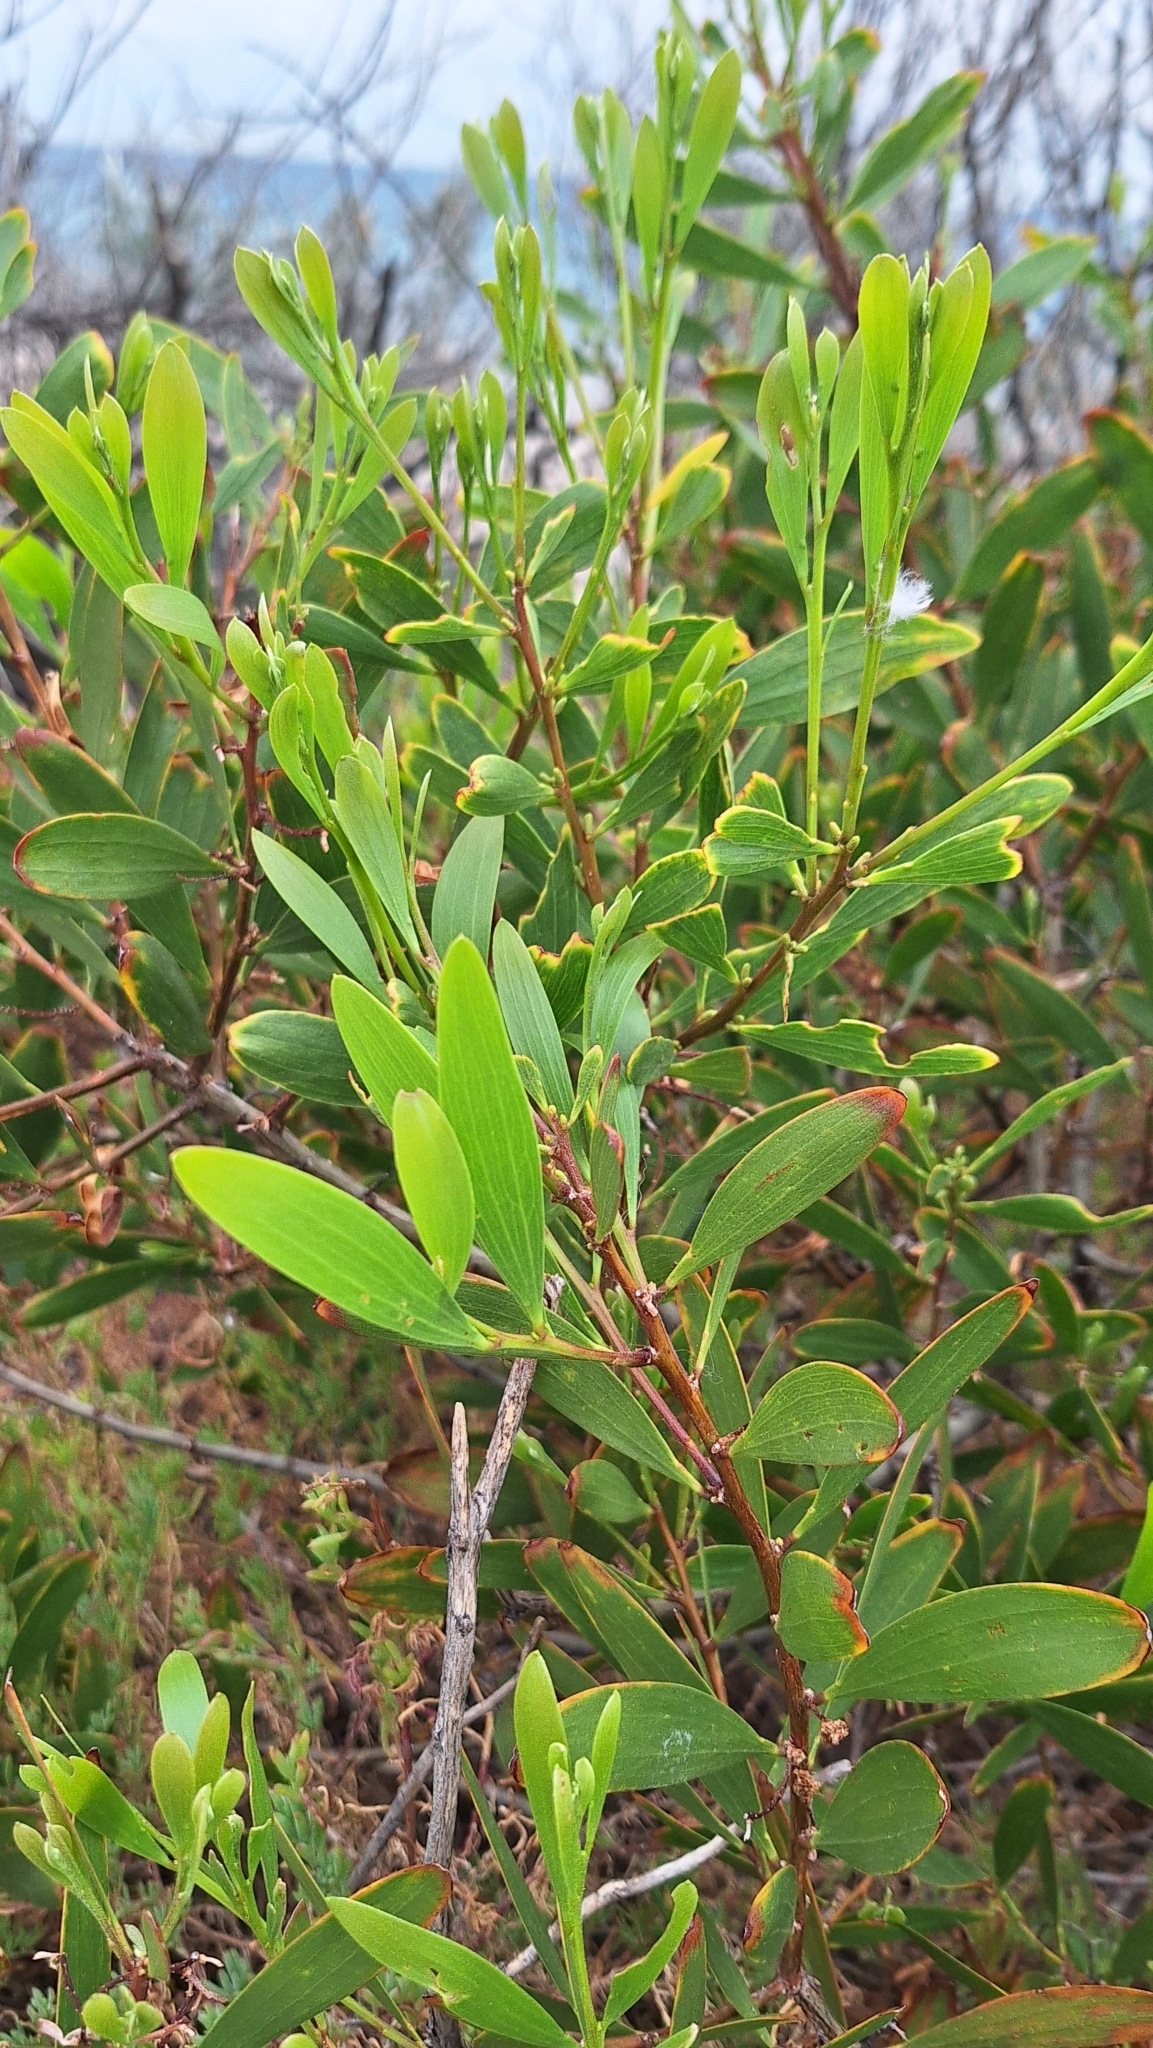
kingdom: Plantae
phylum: Tracheophyta
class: Magnoliopsida
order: Fabales
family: Fabaceae
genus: Acacia
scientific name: Acacia longifolia
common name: Sydney golden wattle
